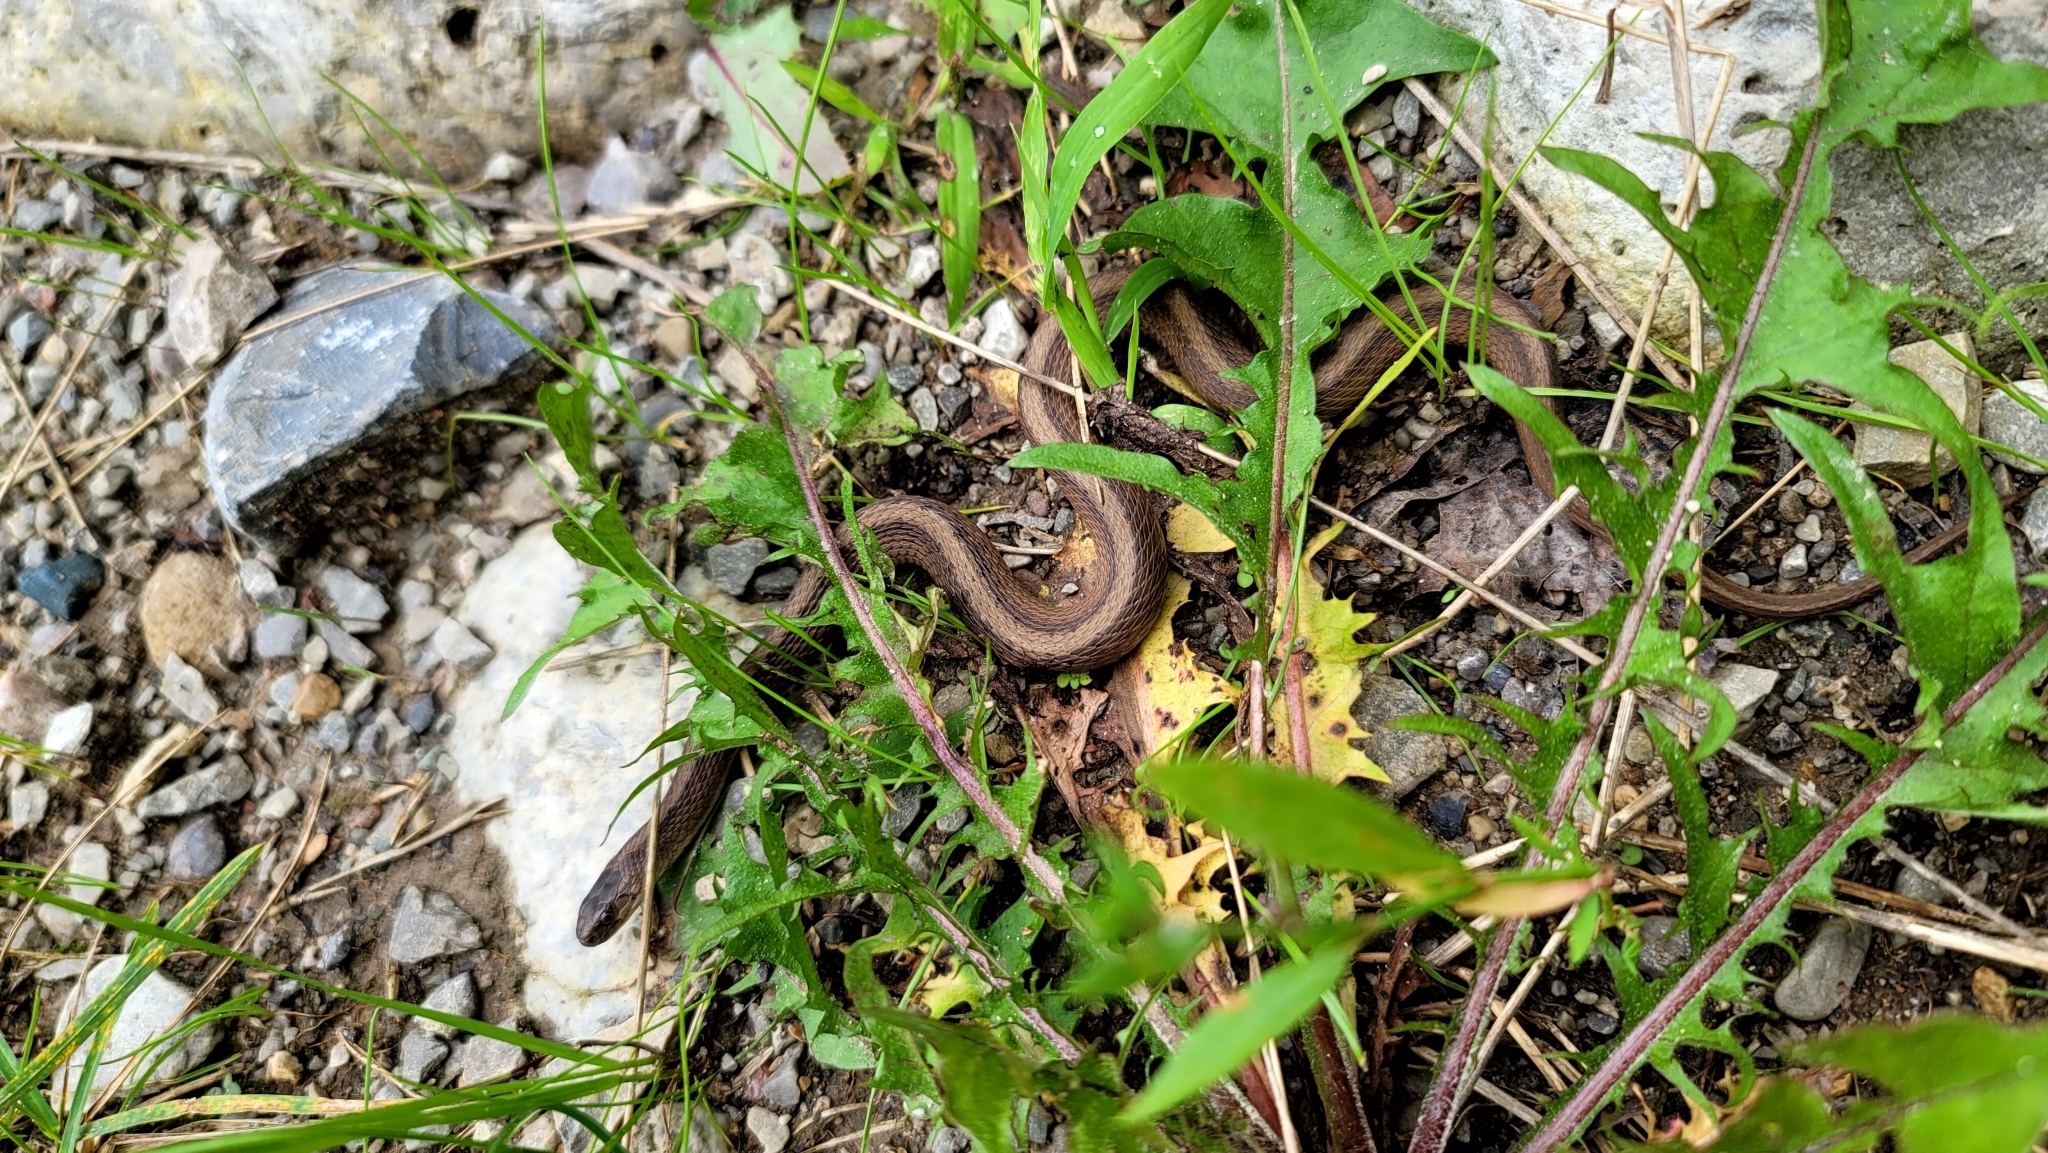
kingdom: Animalia
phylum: Chordata
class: Squamata
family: Colubridae
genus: Storeria
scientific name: Storeria dekayi
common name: (dekay’s) brown snake
